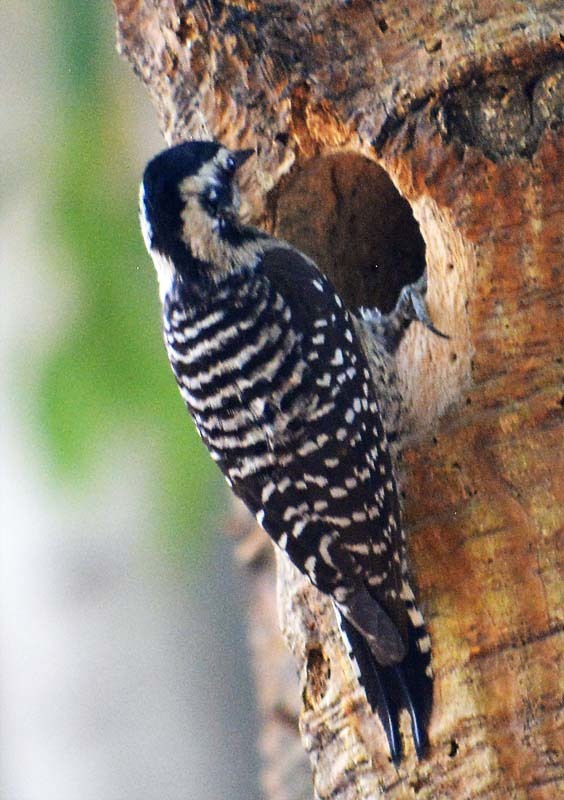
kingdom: Animalia
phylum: Chordata
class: Aves
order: Piciformes
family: Picidae
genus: Dryobates
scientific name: Dryobates scalaris
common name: Ladder-backed woodpecker
